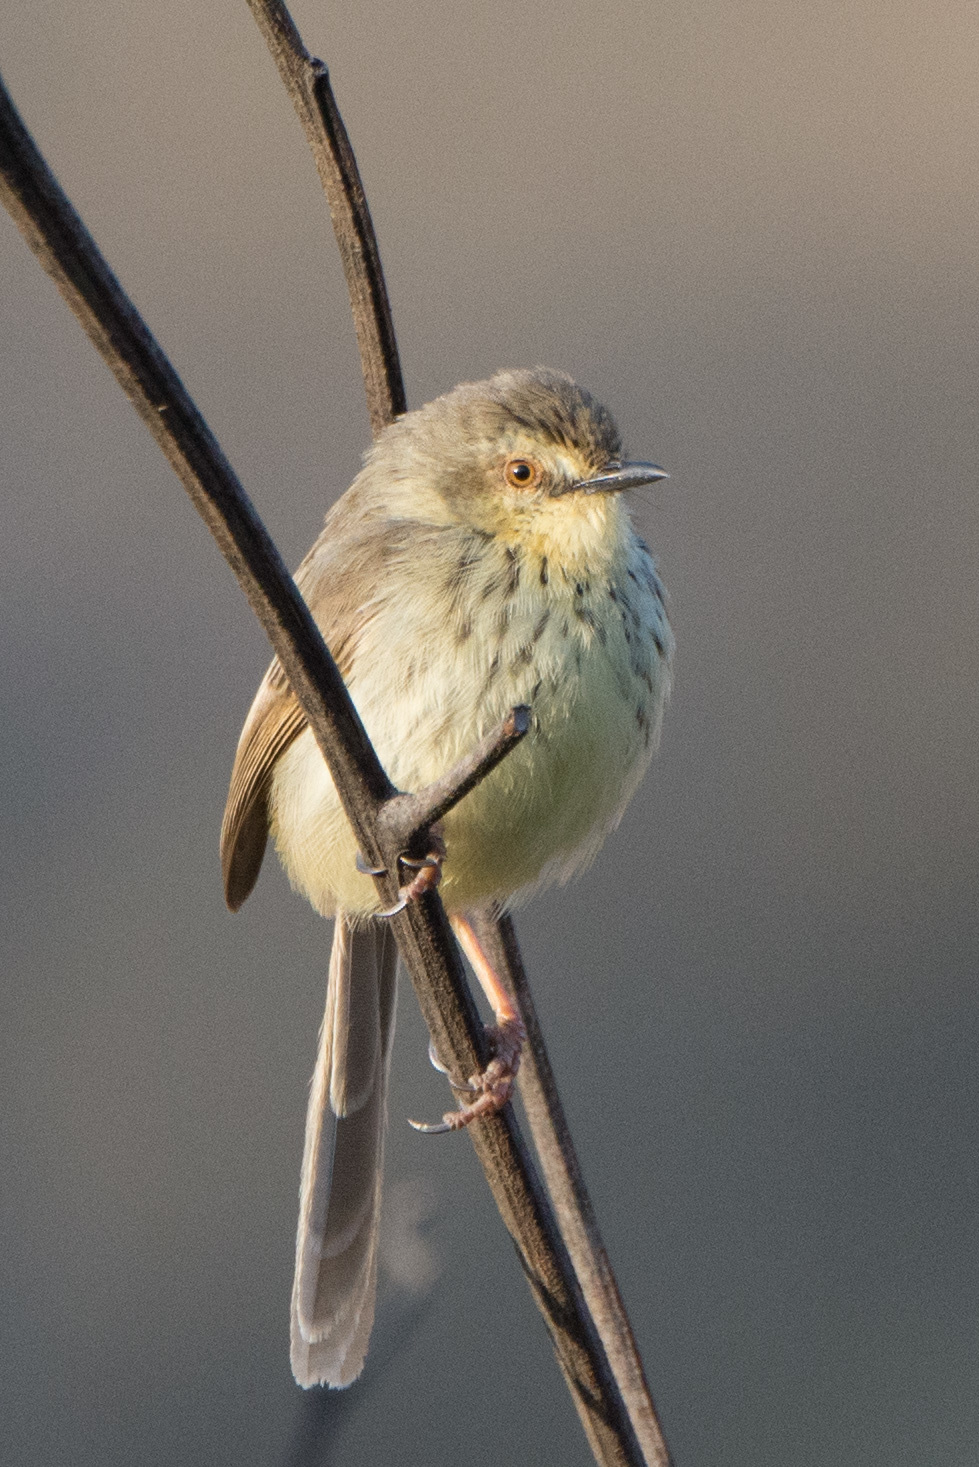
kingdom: Animalia
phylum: Chordata
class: Aves
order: Passeriformes
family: Cisticolidae
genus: Prinia
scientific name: Prinia hypoxantha
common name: Drakensberg prinia
